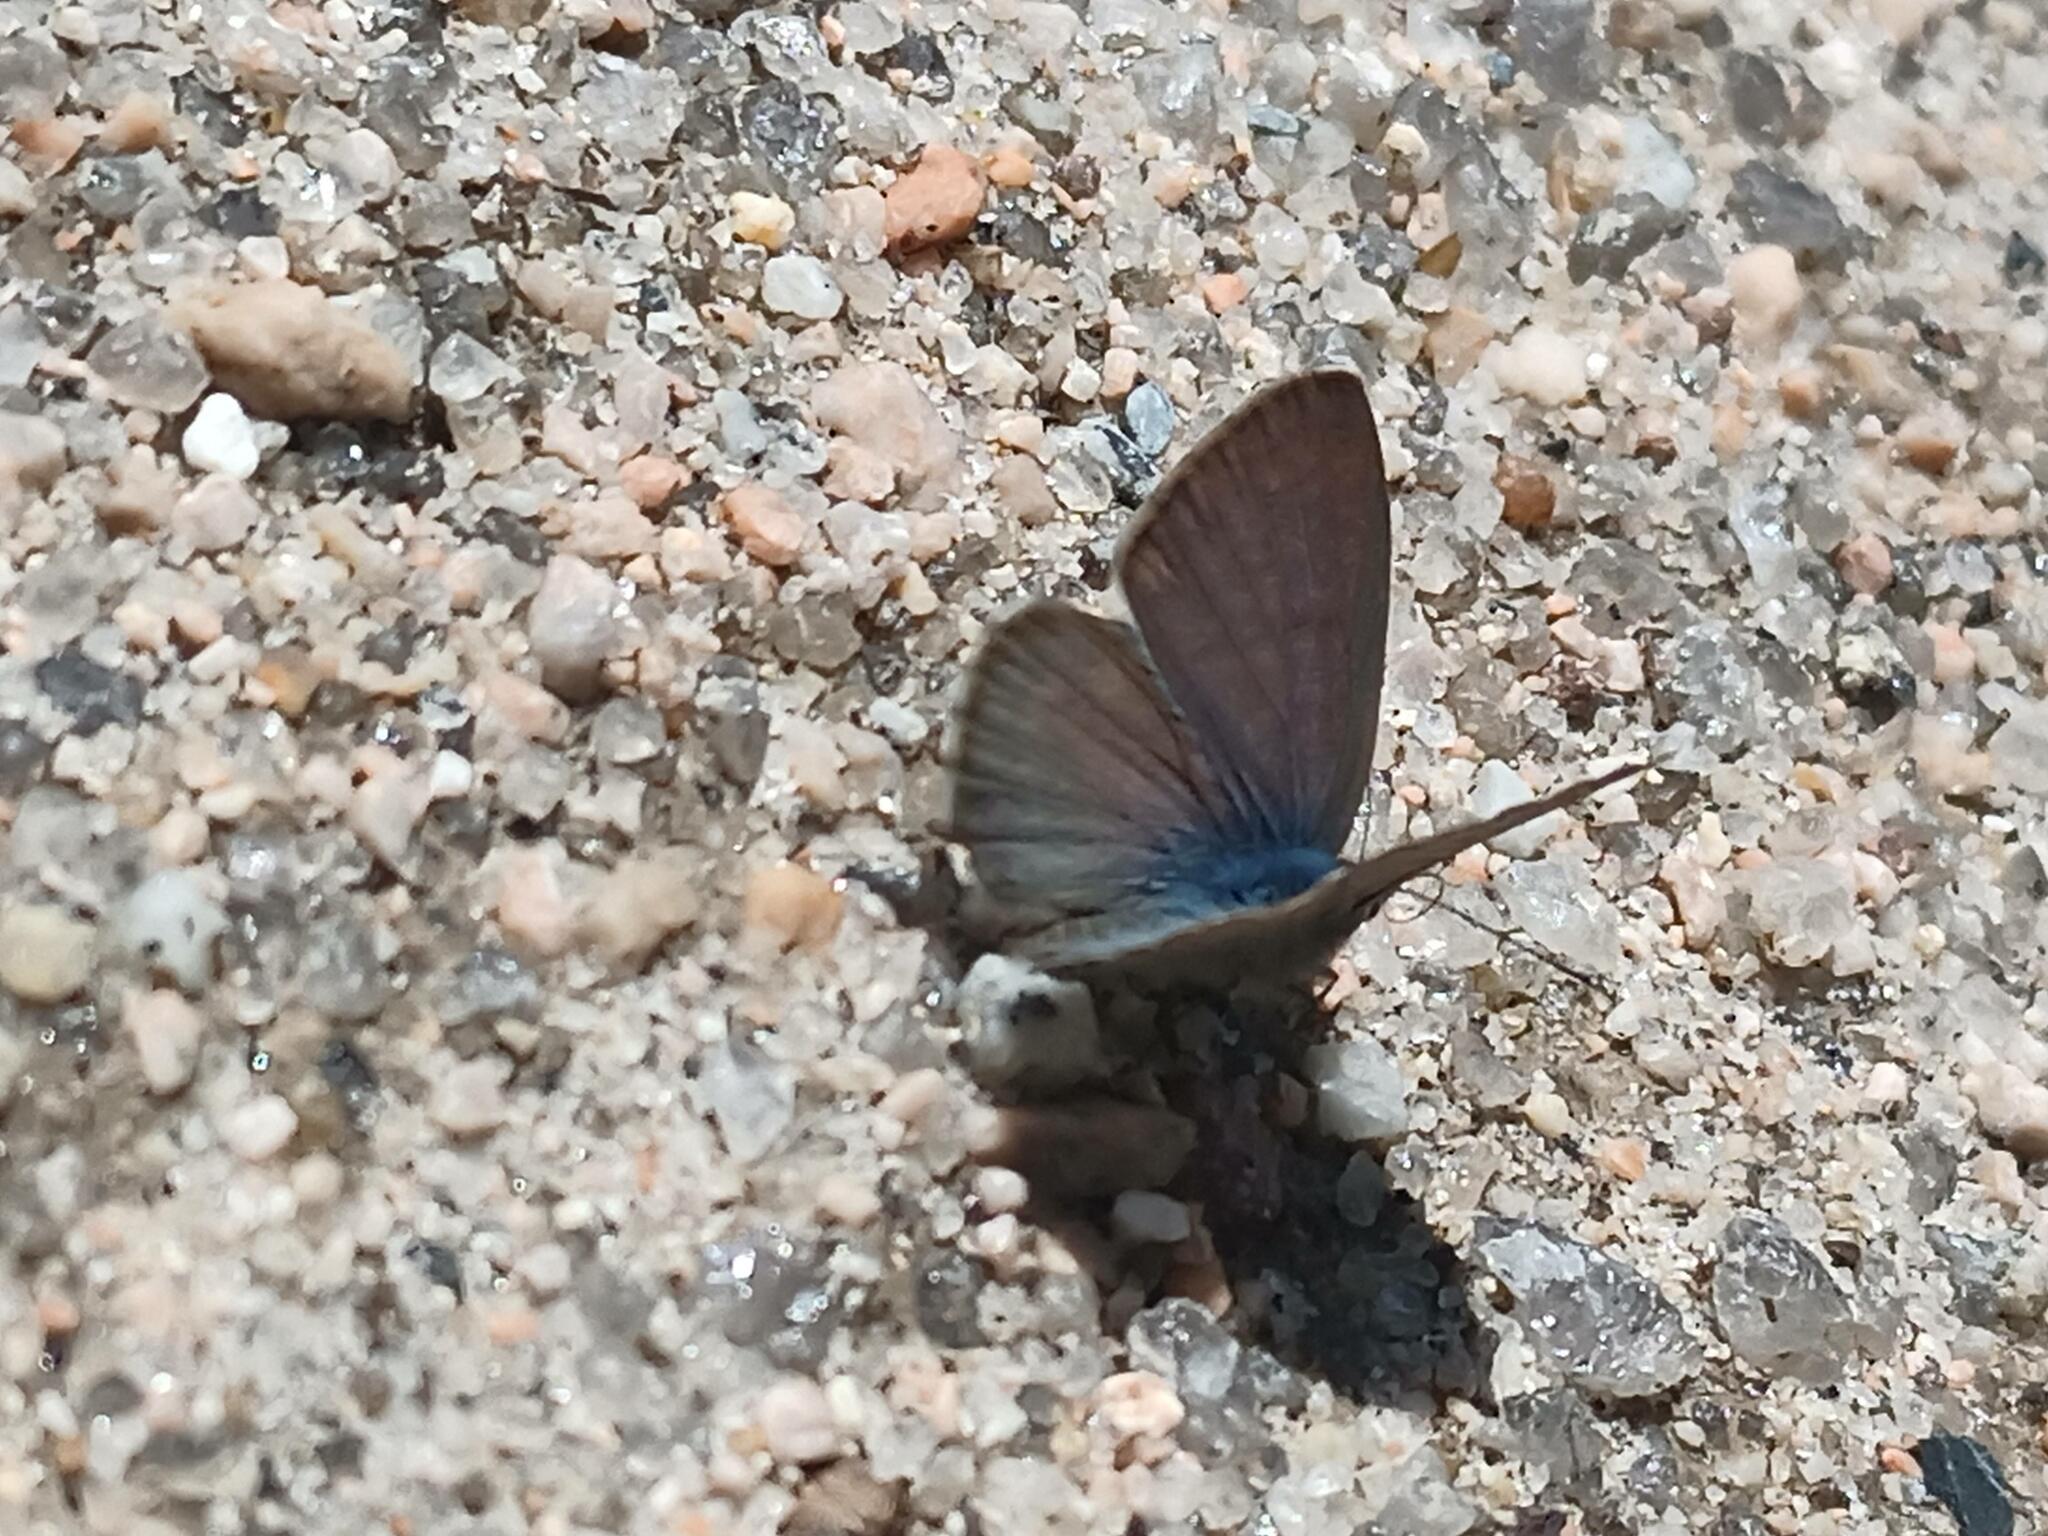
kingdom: Animalia
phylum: Arthropoda
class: Insecta
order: Lepidoptera
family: Lycaenidae
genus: Leptotes
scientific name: Leptotes pirithous
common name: Lang's short-tailed blue
